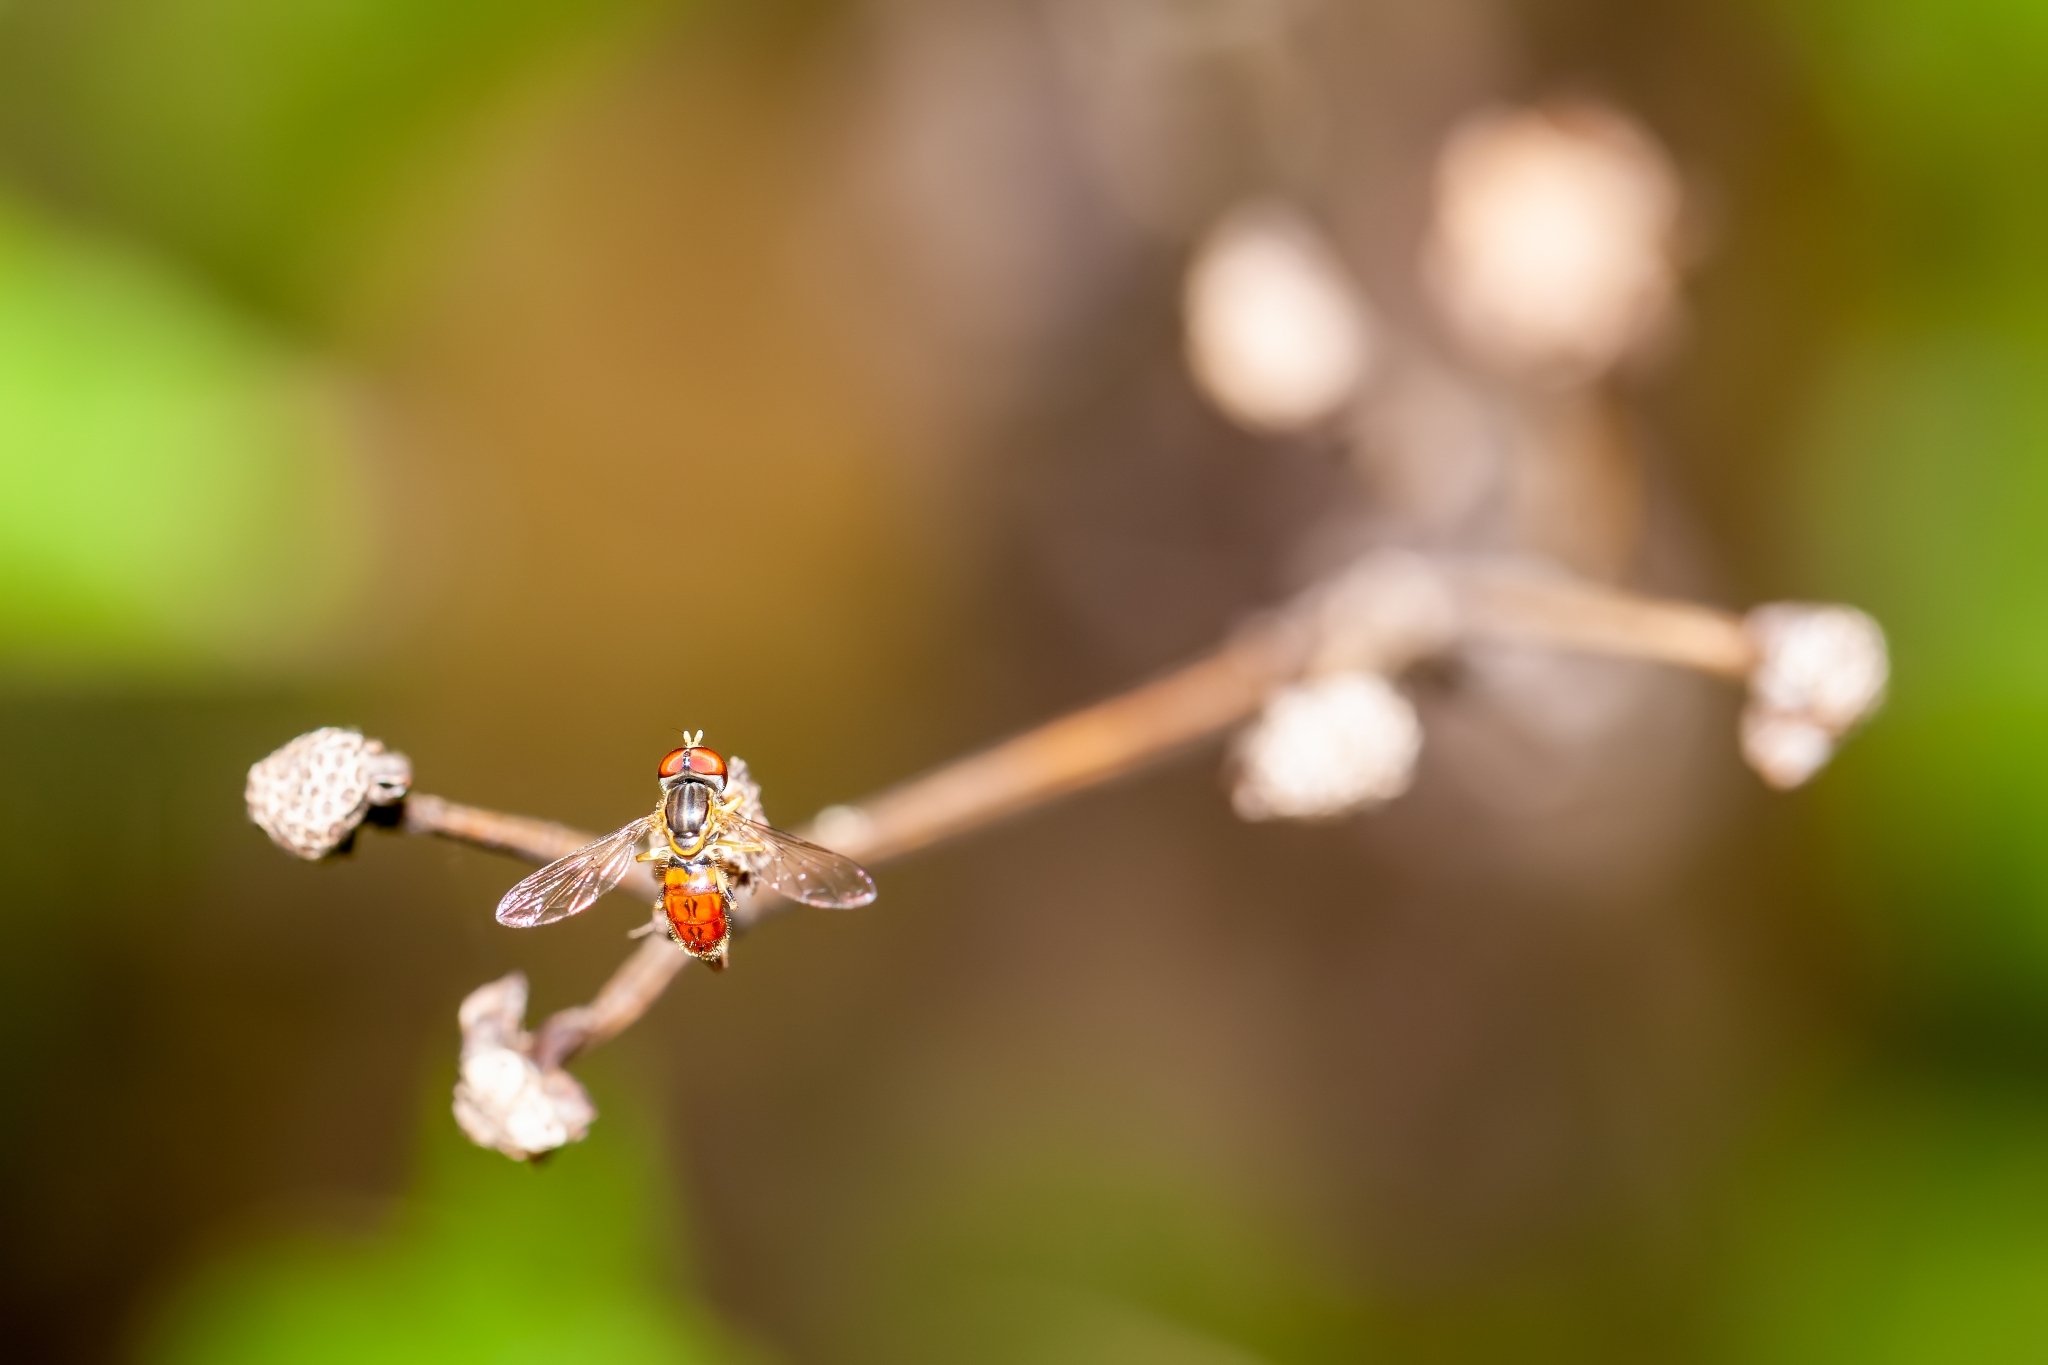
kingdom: Animalia
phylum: Arthropoda
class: Insecta
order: Diptera
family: Syrphidae
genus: Toxomerus
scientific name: Toxomerus boscii
